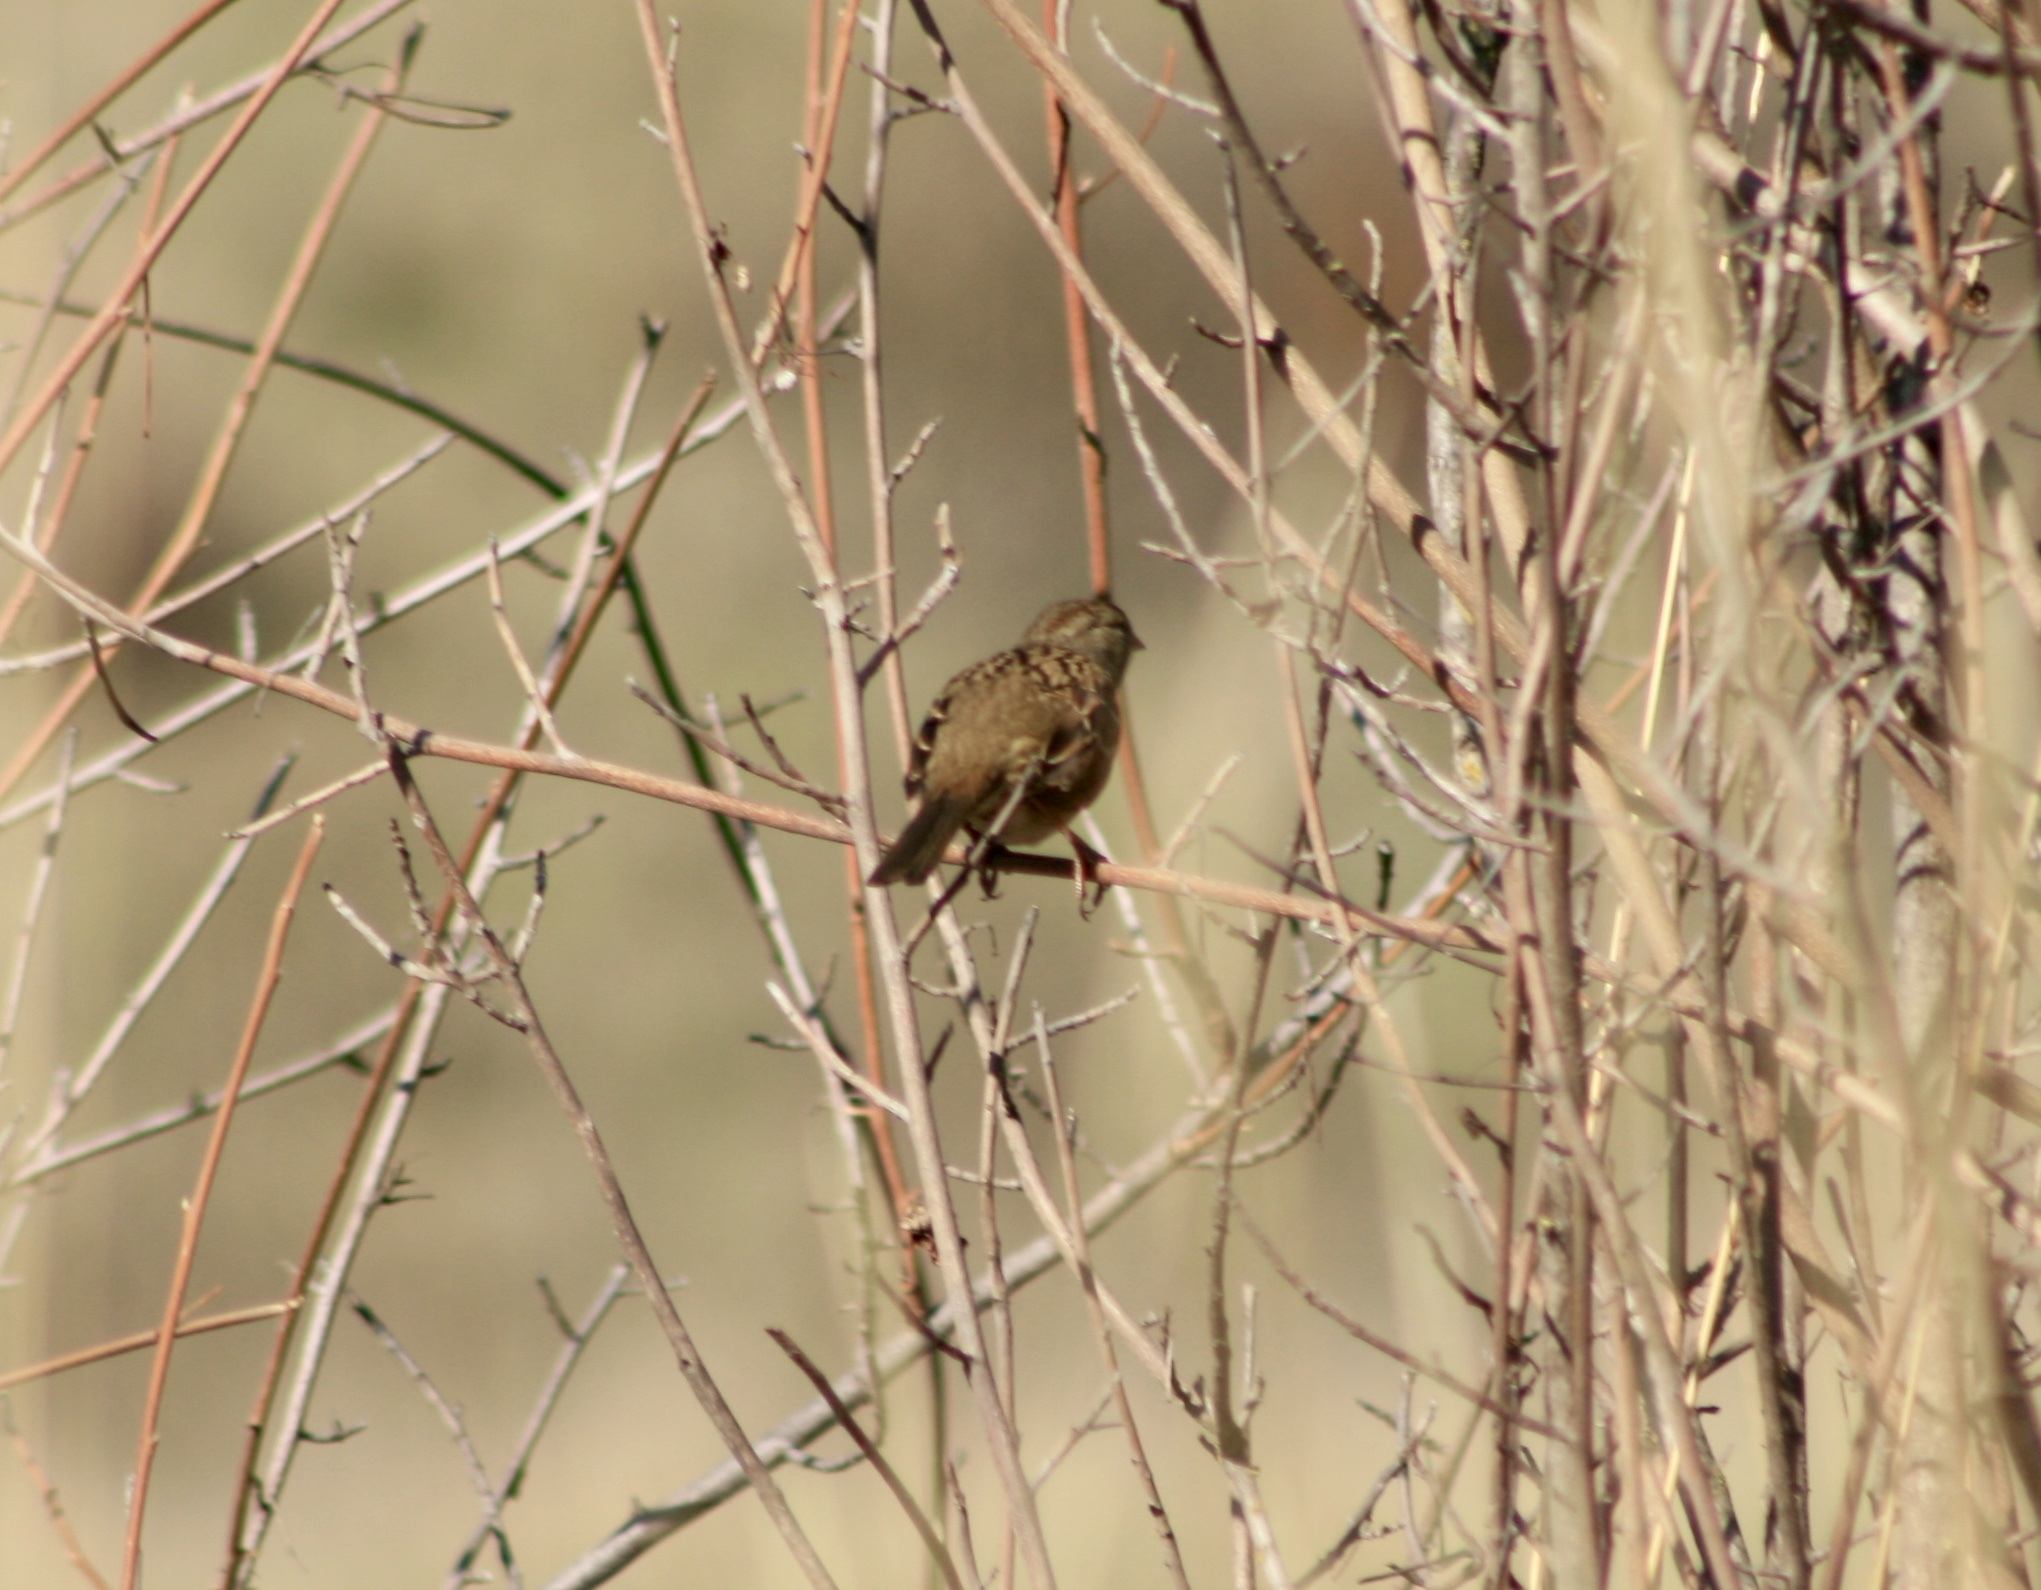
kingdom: Animalia
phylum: Chordata
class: Aves
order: Passeriformes
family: Passerellidae
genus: Zonotrichia
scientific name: Zonotrichia leucophrys
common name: White-crowned sparrow
